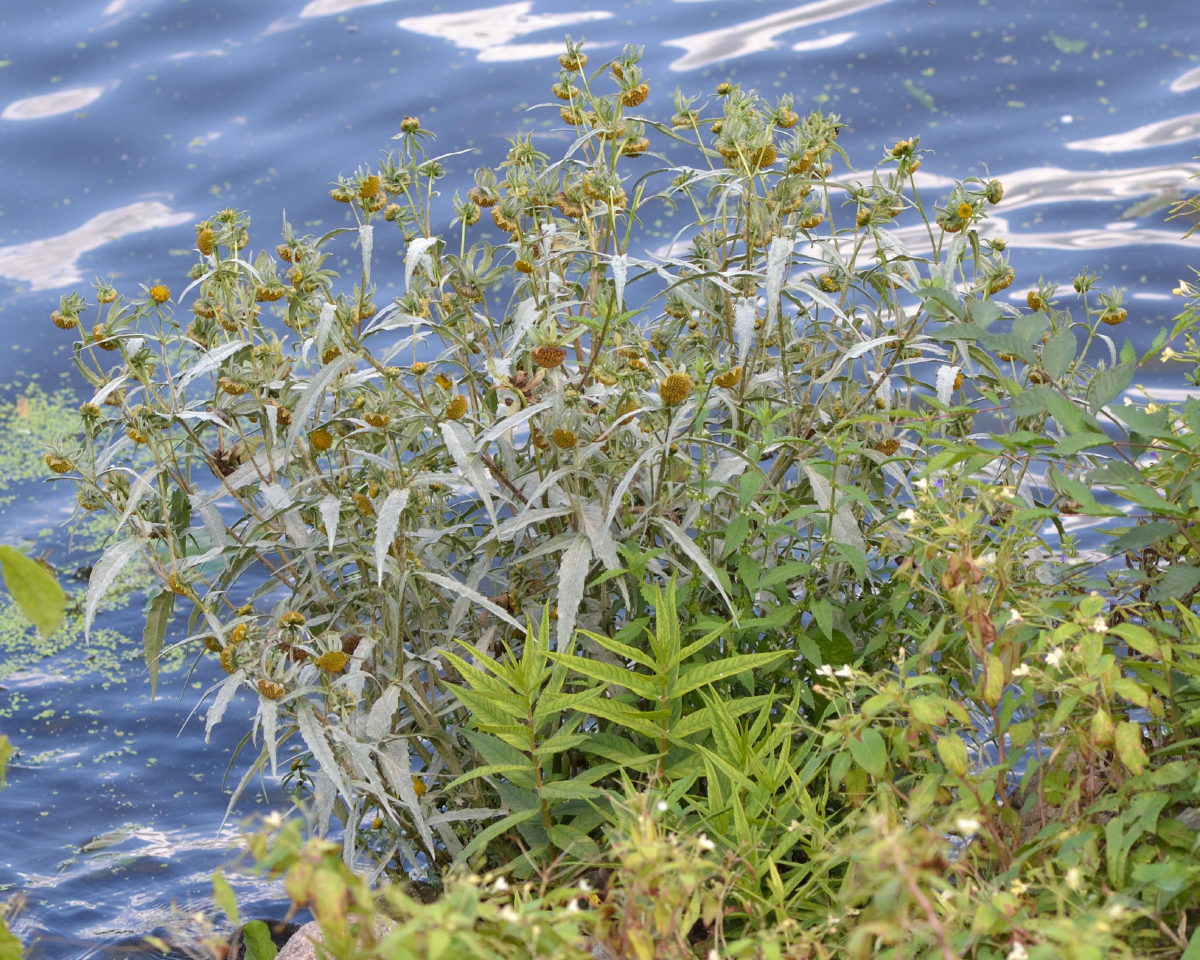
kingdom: Plantae
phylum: Tracheophyta
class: Magnoliopsida
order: Asterales
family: Asteraceae
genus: Bidens
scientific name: Bidens cernua
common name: Nodding bur-marigold
